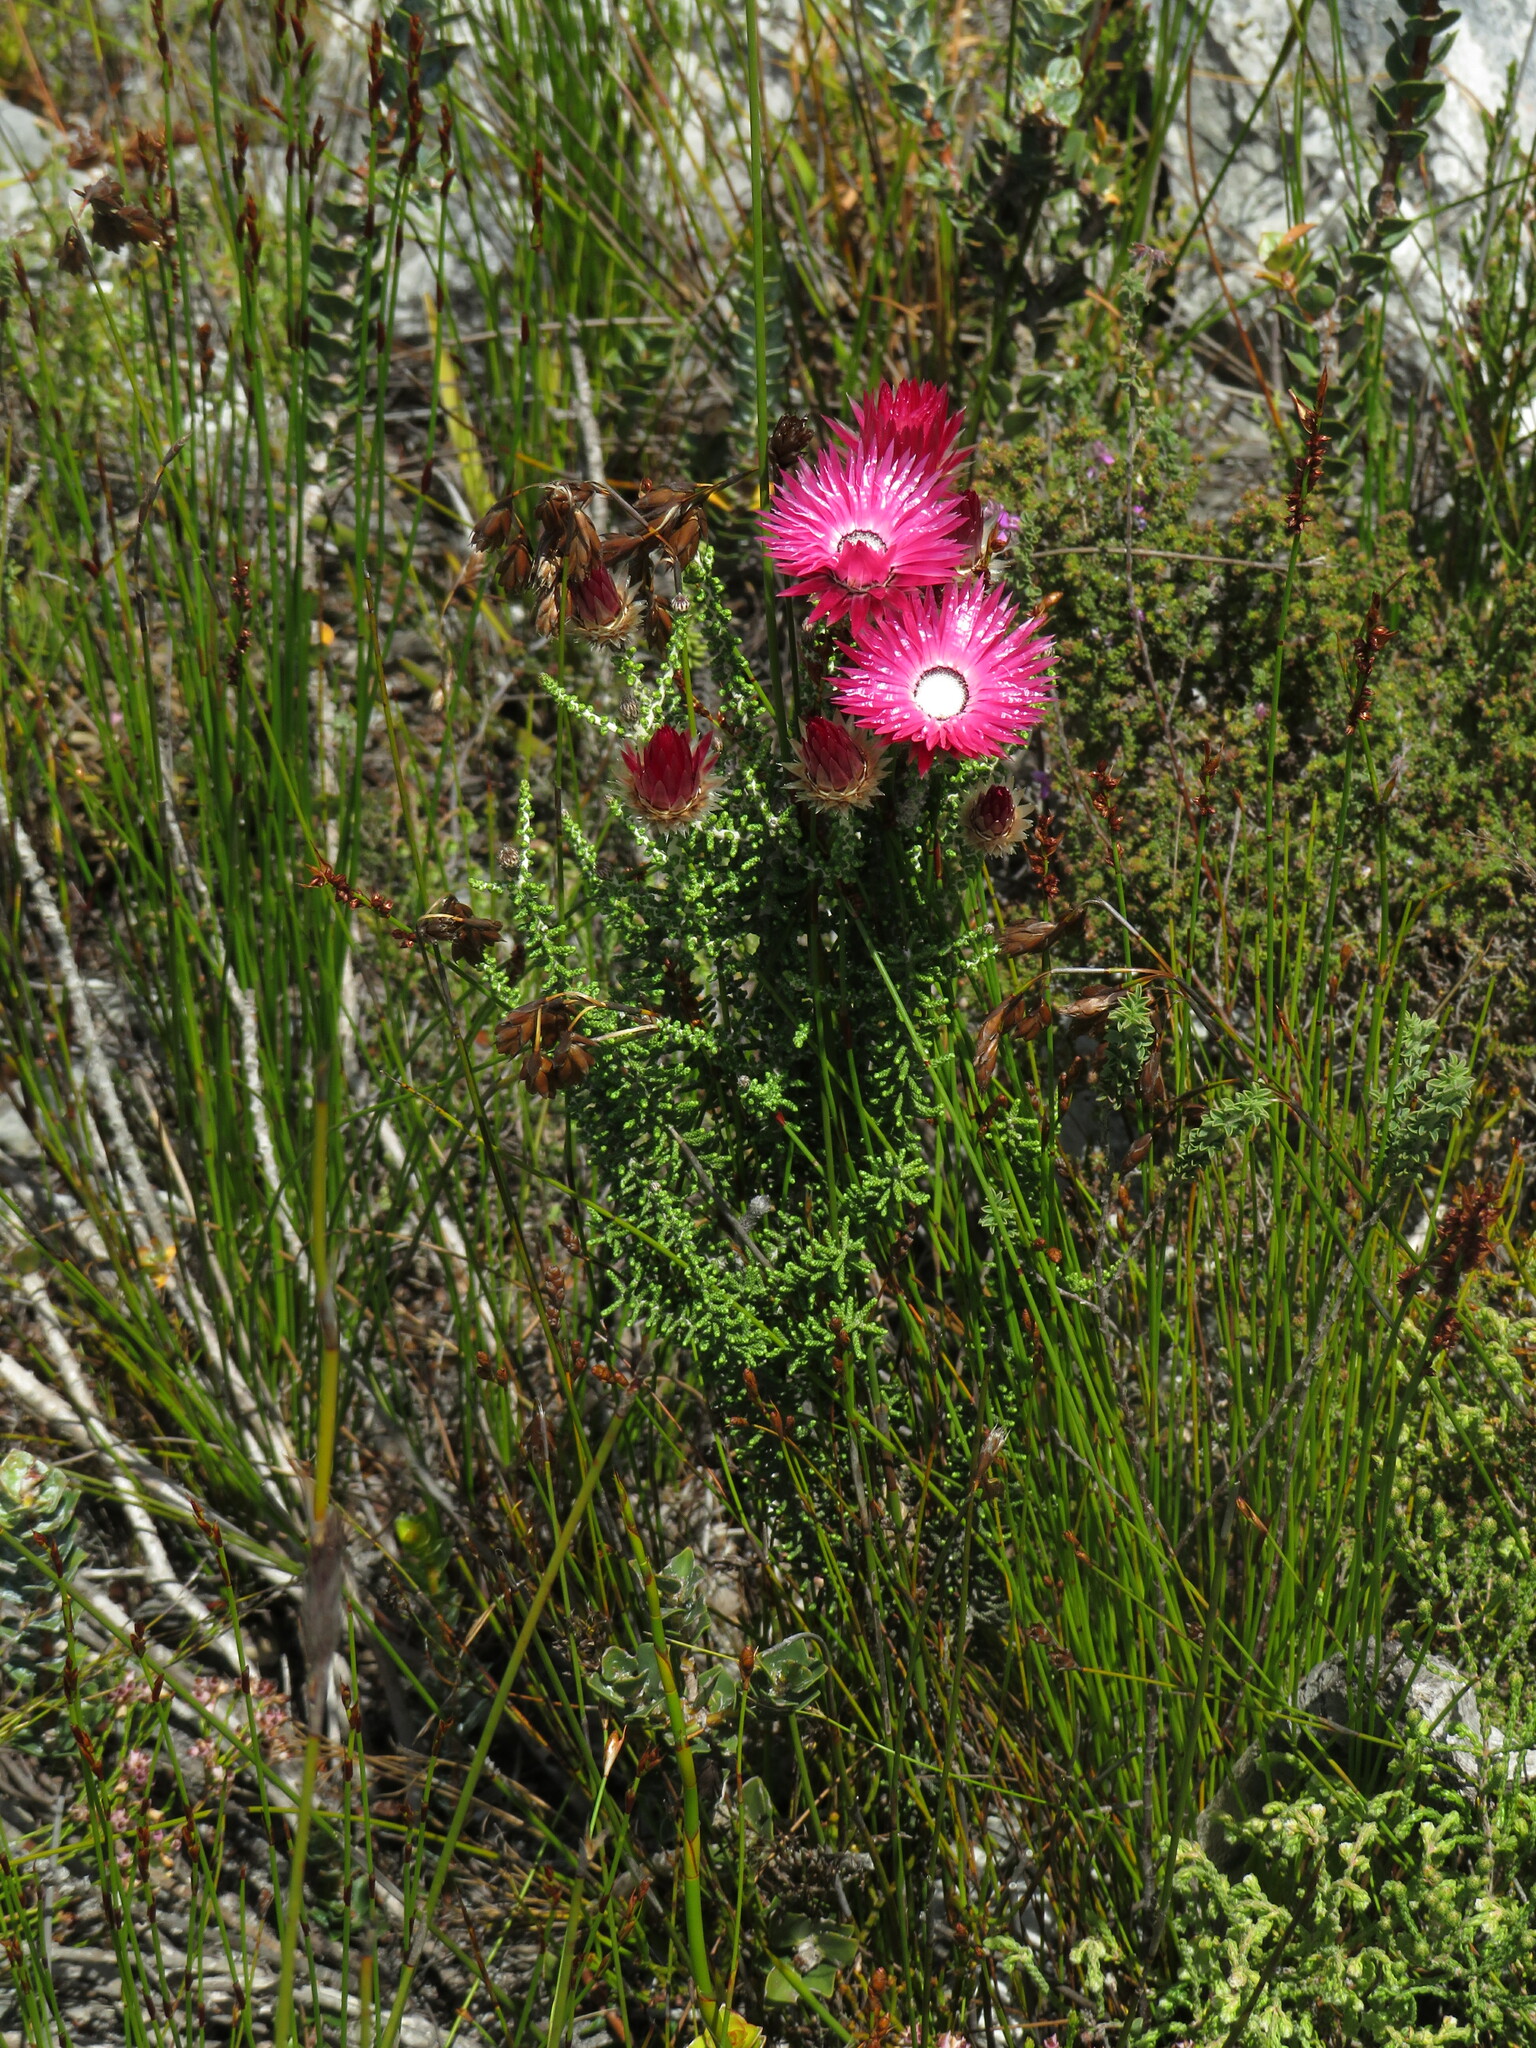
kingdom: Plantae
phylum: Tracheophyta
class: Magnoliopsida
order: Asterales
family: Asteraceae
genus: Phaenocoma
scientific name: Phaenocoma prolifera
